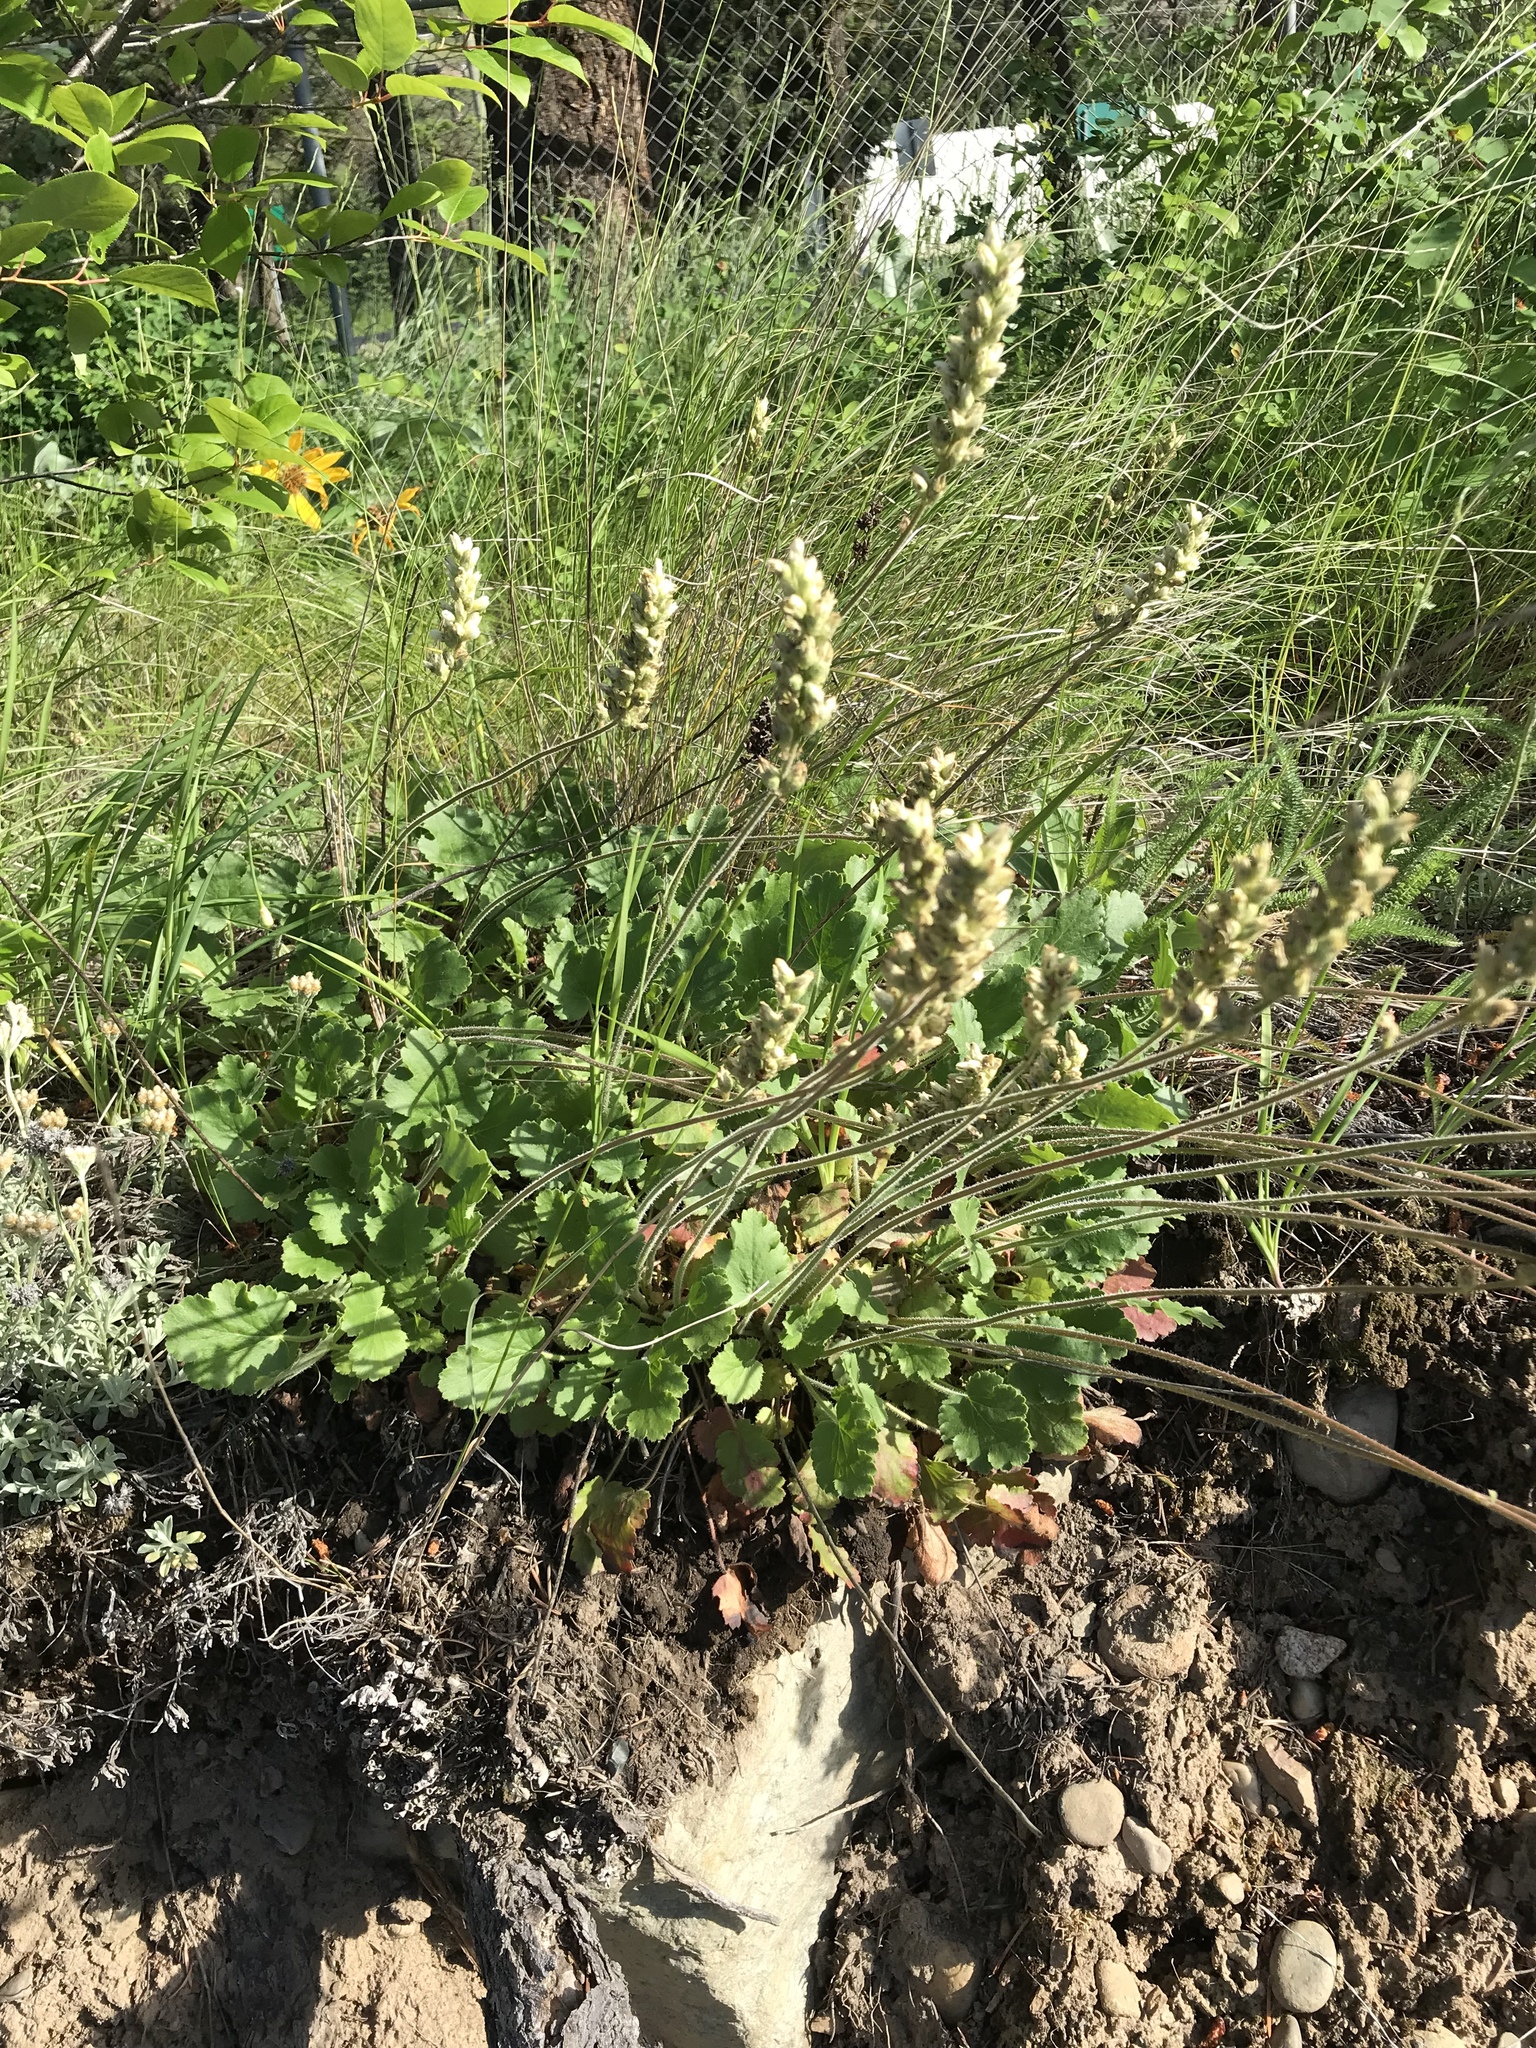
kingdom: Plantae
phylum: Tracheophyta
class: Magnoliopsida
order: Saxifragales
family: Saxifragaceae
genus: Heuchera
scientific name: Heuchera cylindrica
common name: Mat alumroot
